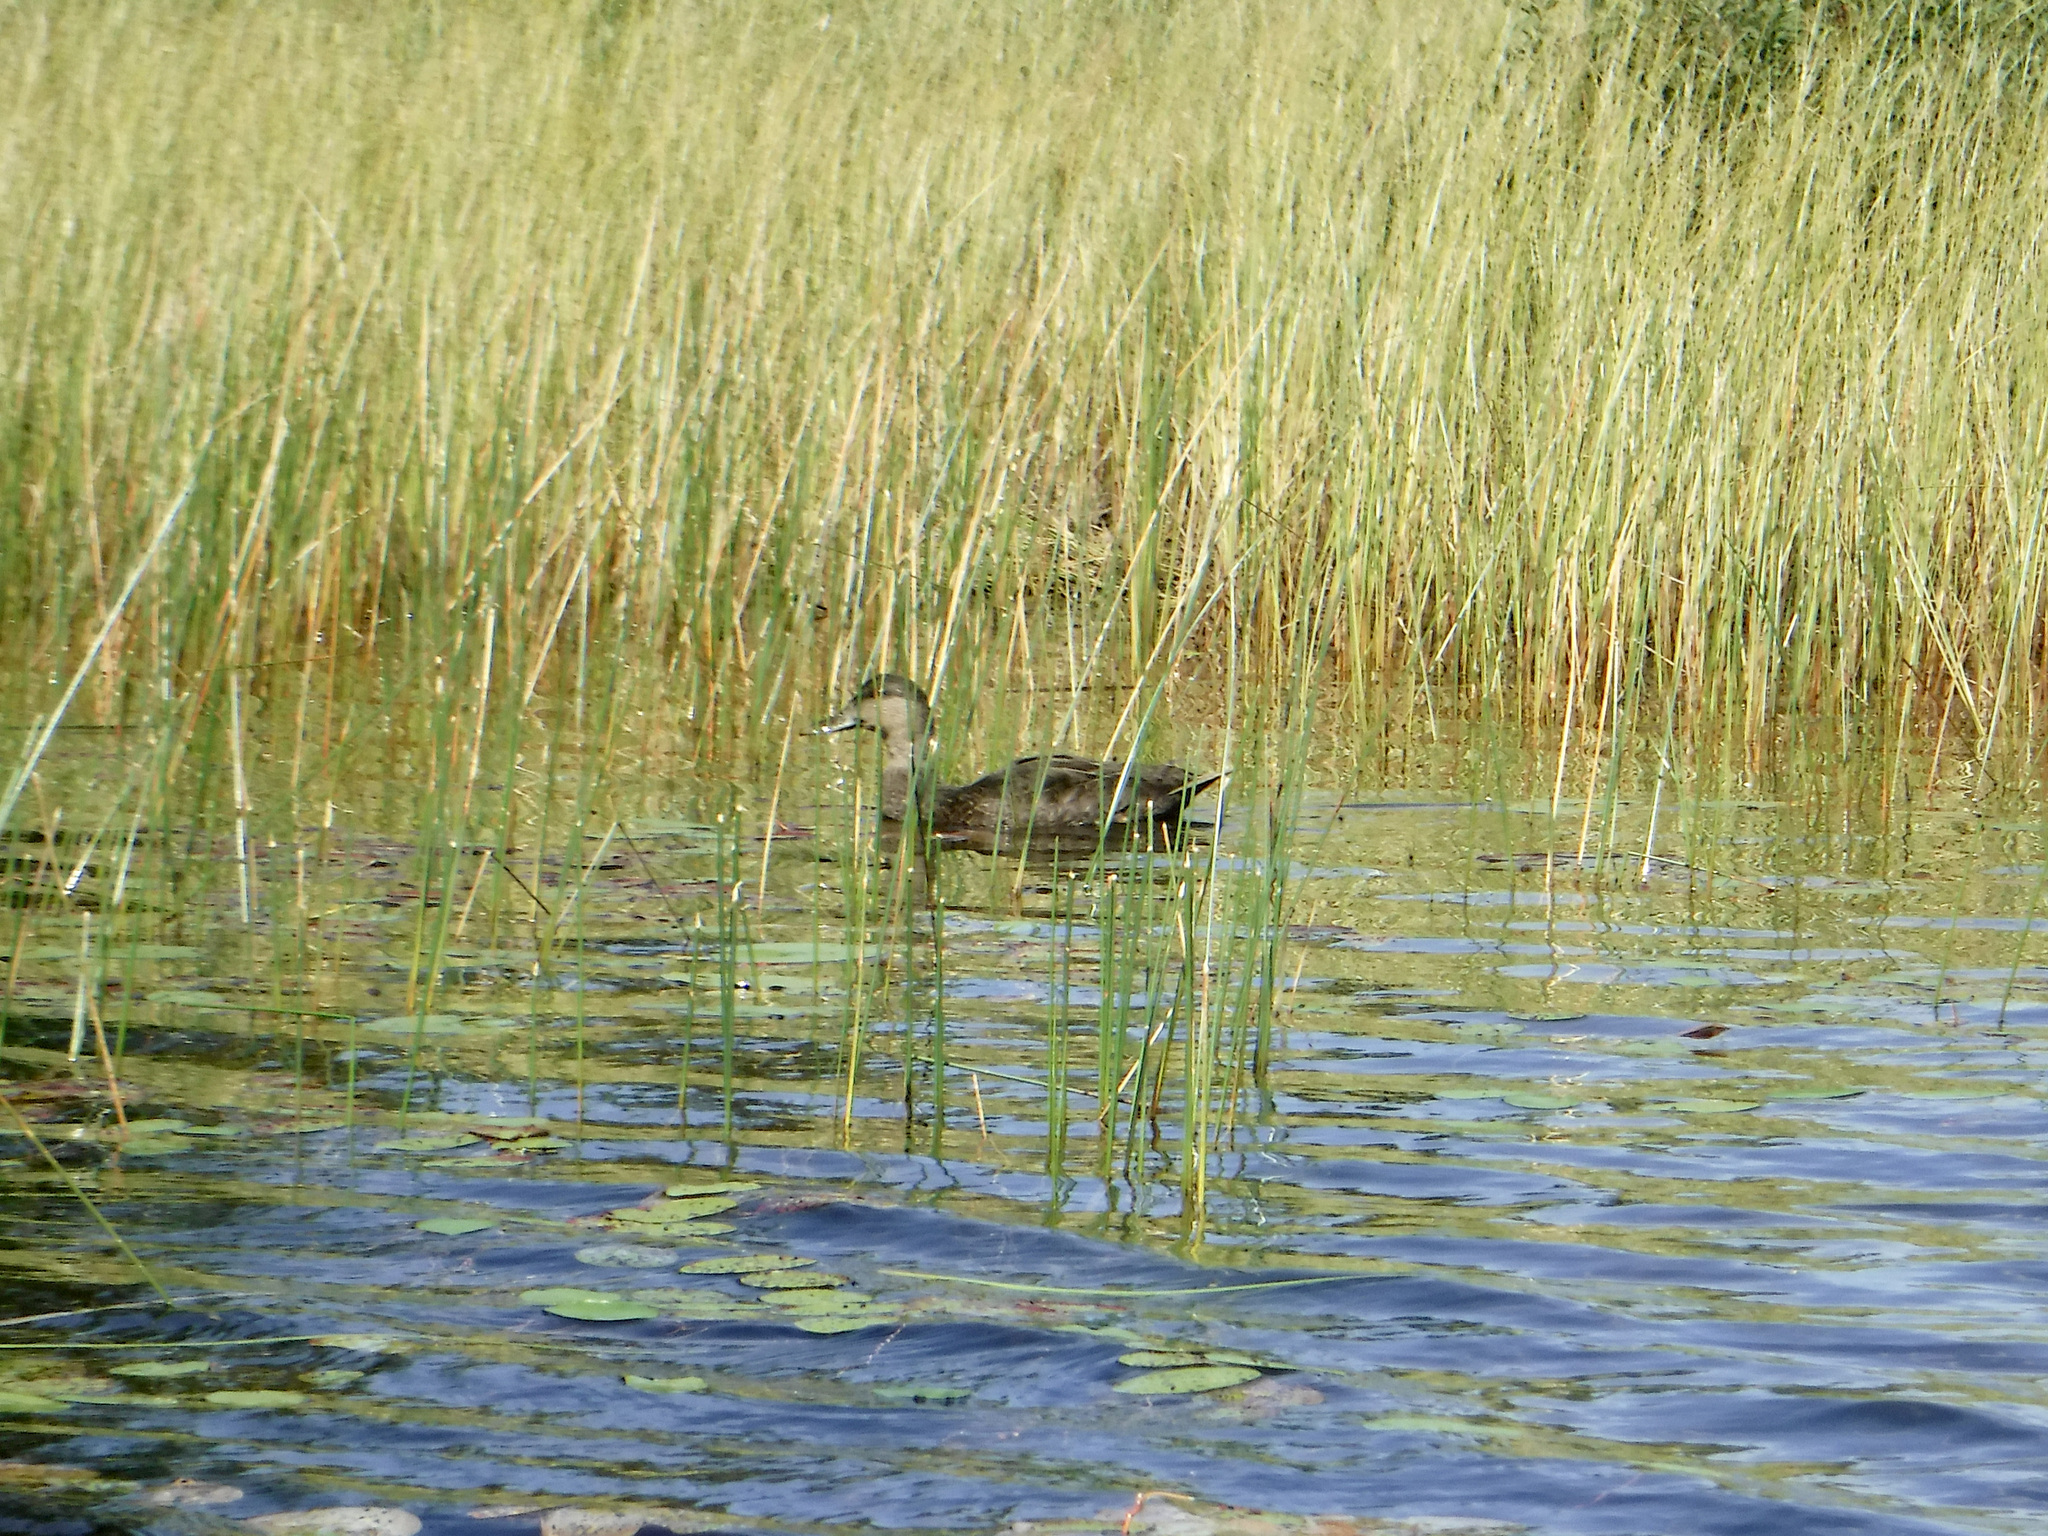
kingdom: Animalia
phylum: Chordata
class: Aves
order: Anseriformes
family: Anatidae
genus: Anas
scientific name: Anas rubripes
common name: American black duck
